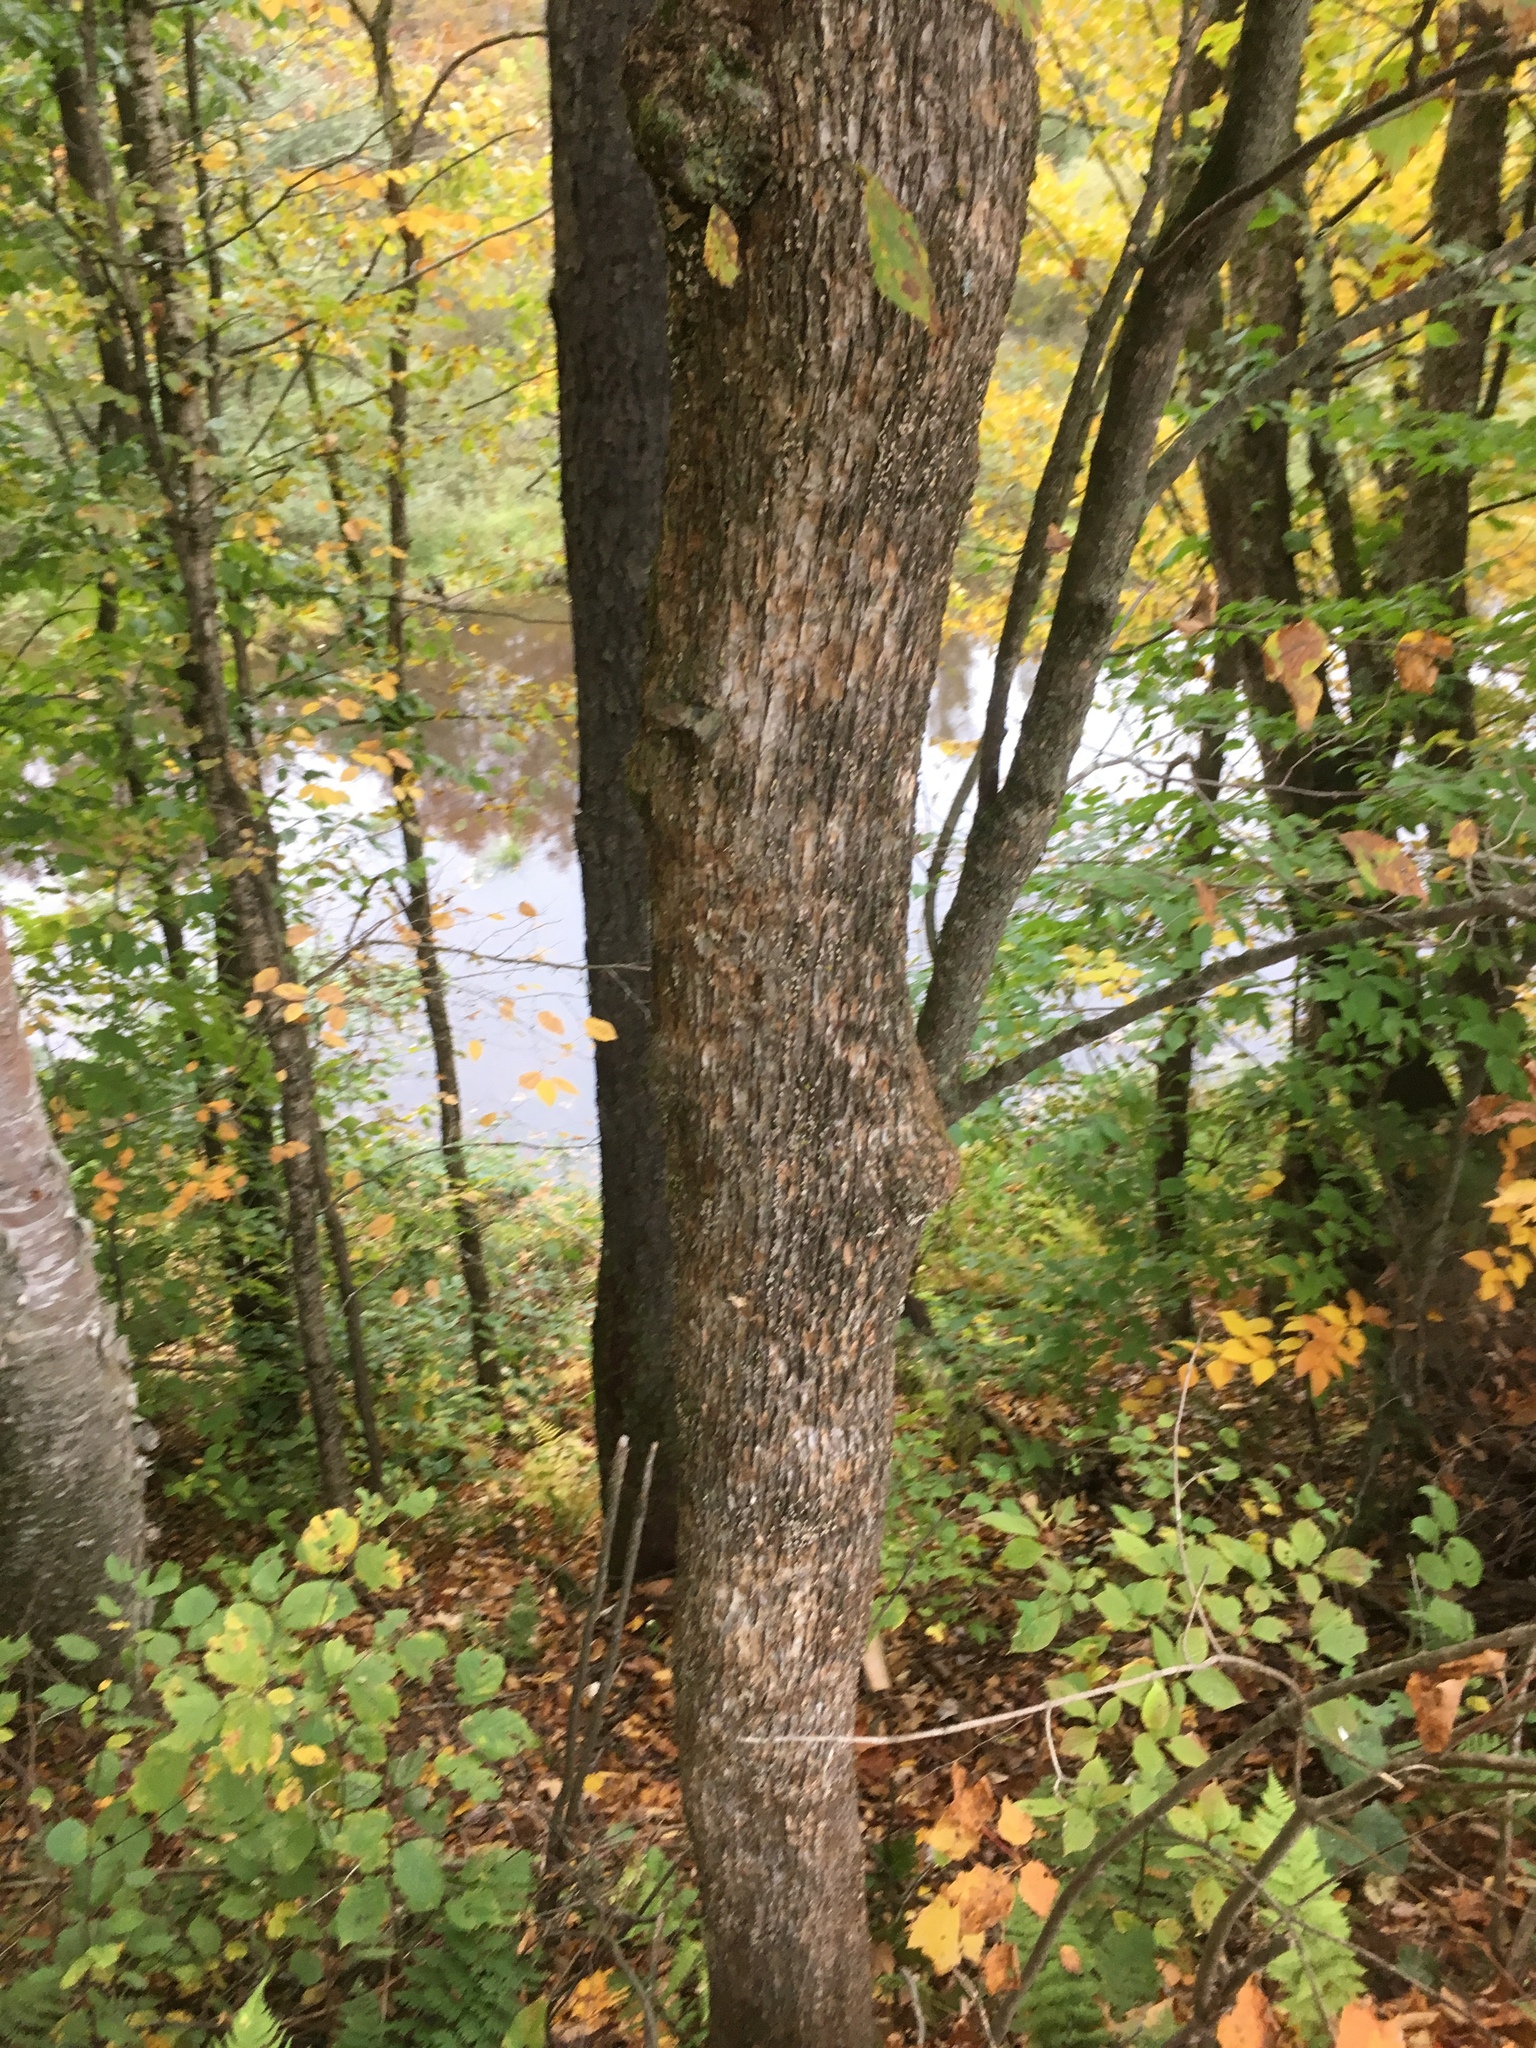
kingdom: Plantae
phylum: Tracheophyta
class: Magnoliopsida
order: Fagales
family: Betulaceae
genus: Ostrya
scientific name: Ostrya virginiana
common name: Ironwood
